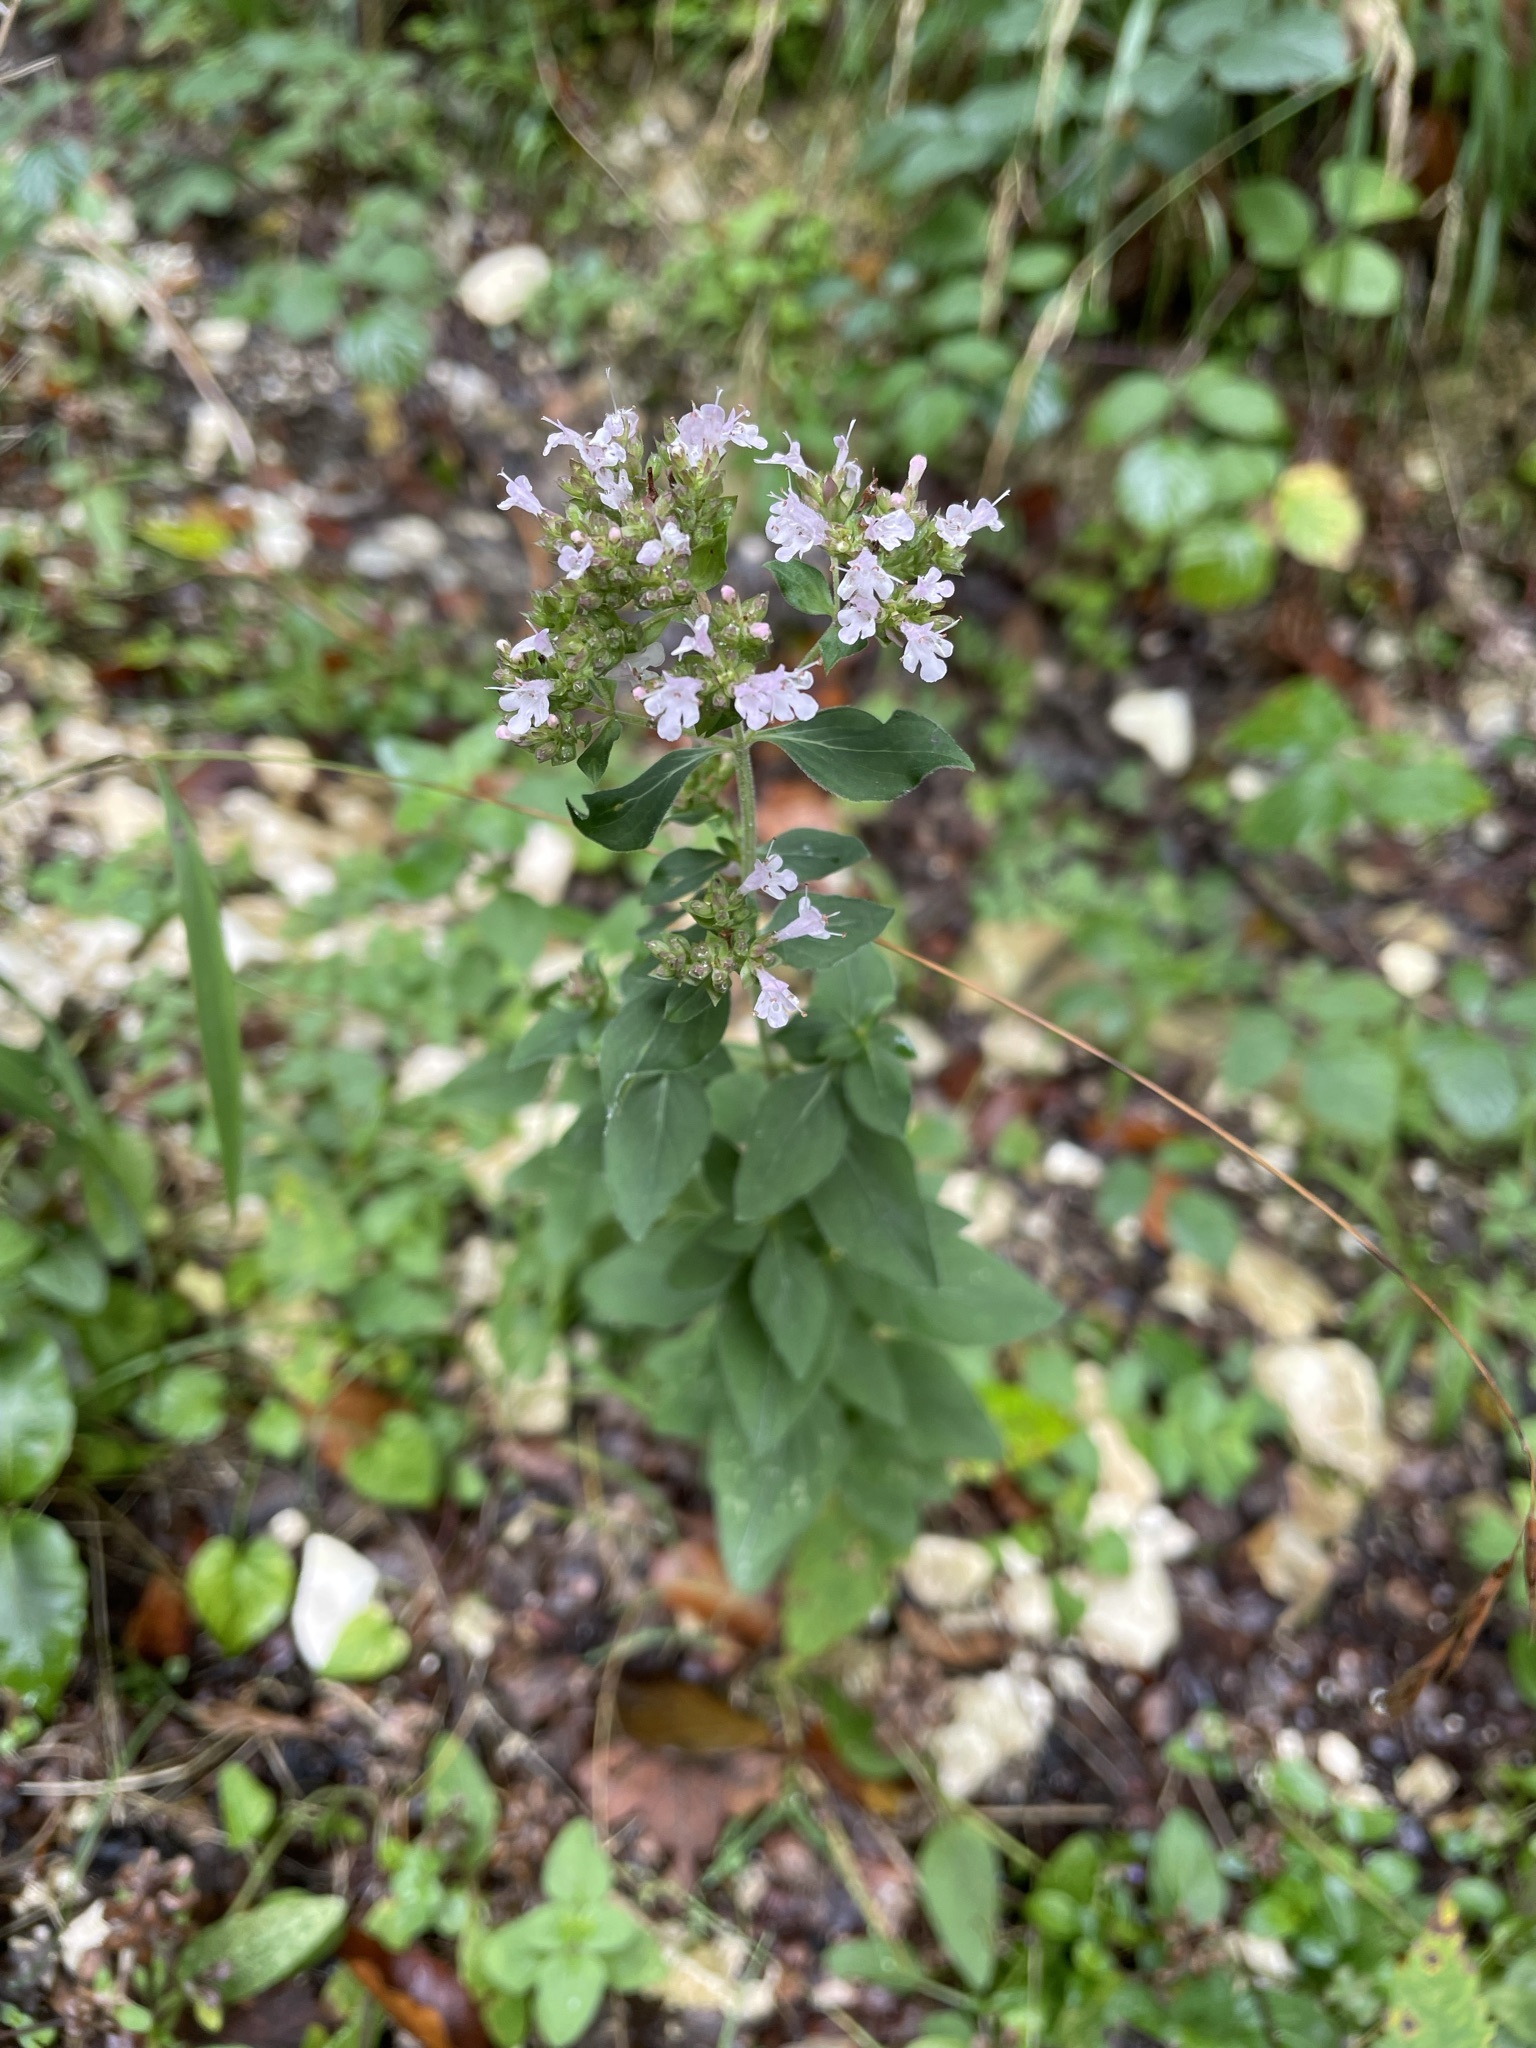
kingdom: Plantae
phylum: Tracheophyta
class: Magnoliopsida
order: Lamiales
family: Lamiaceae
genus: Origanum
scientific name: Origanum vulgare
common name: Wild marjoram
